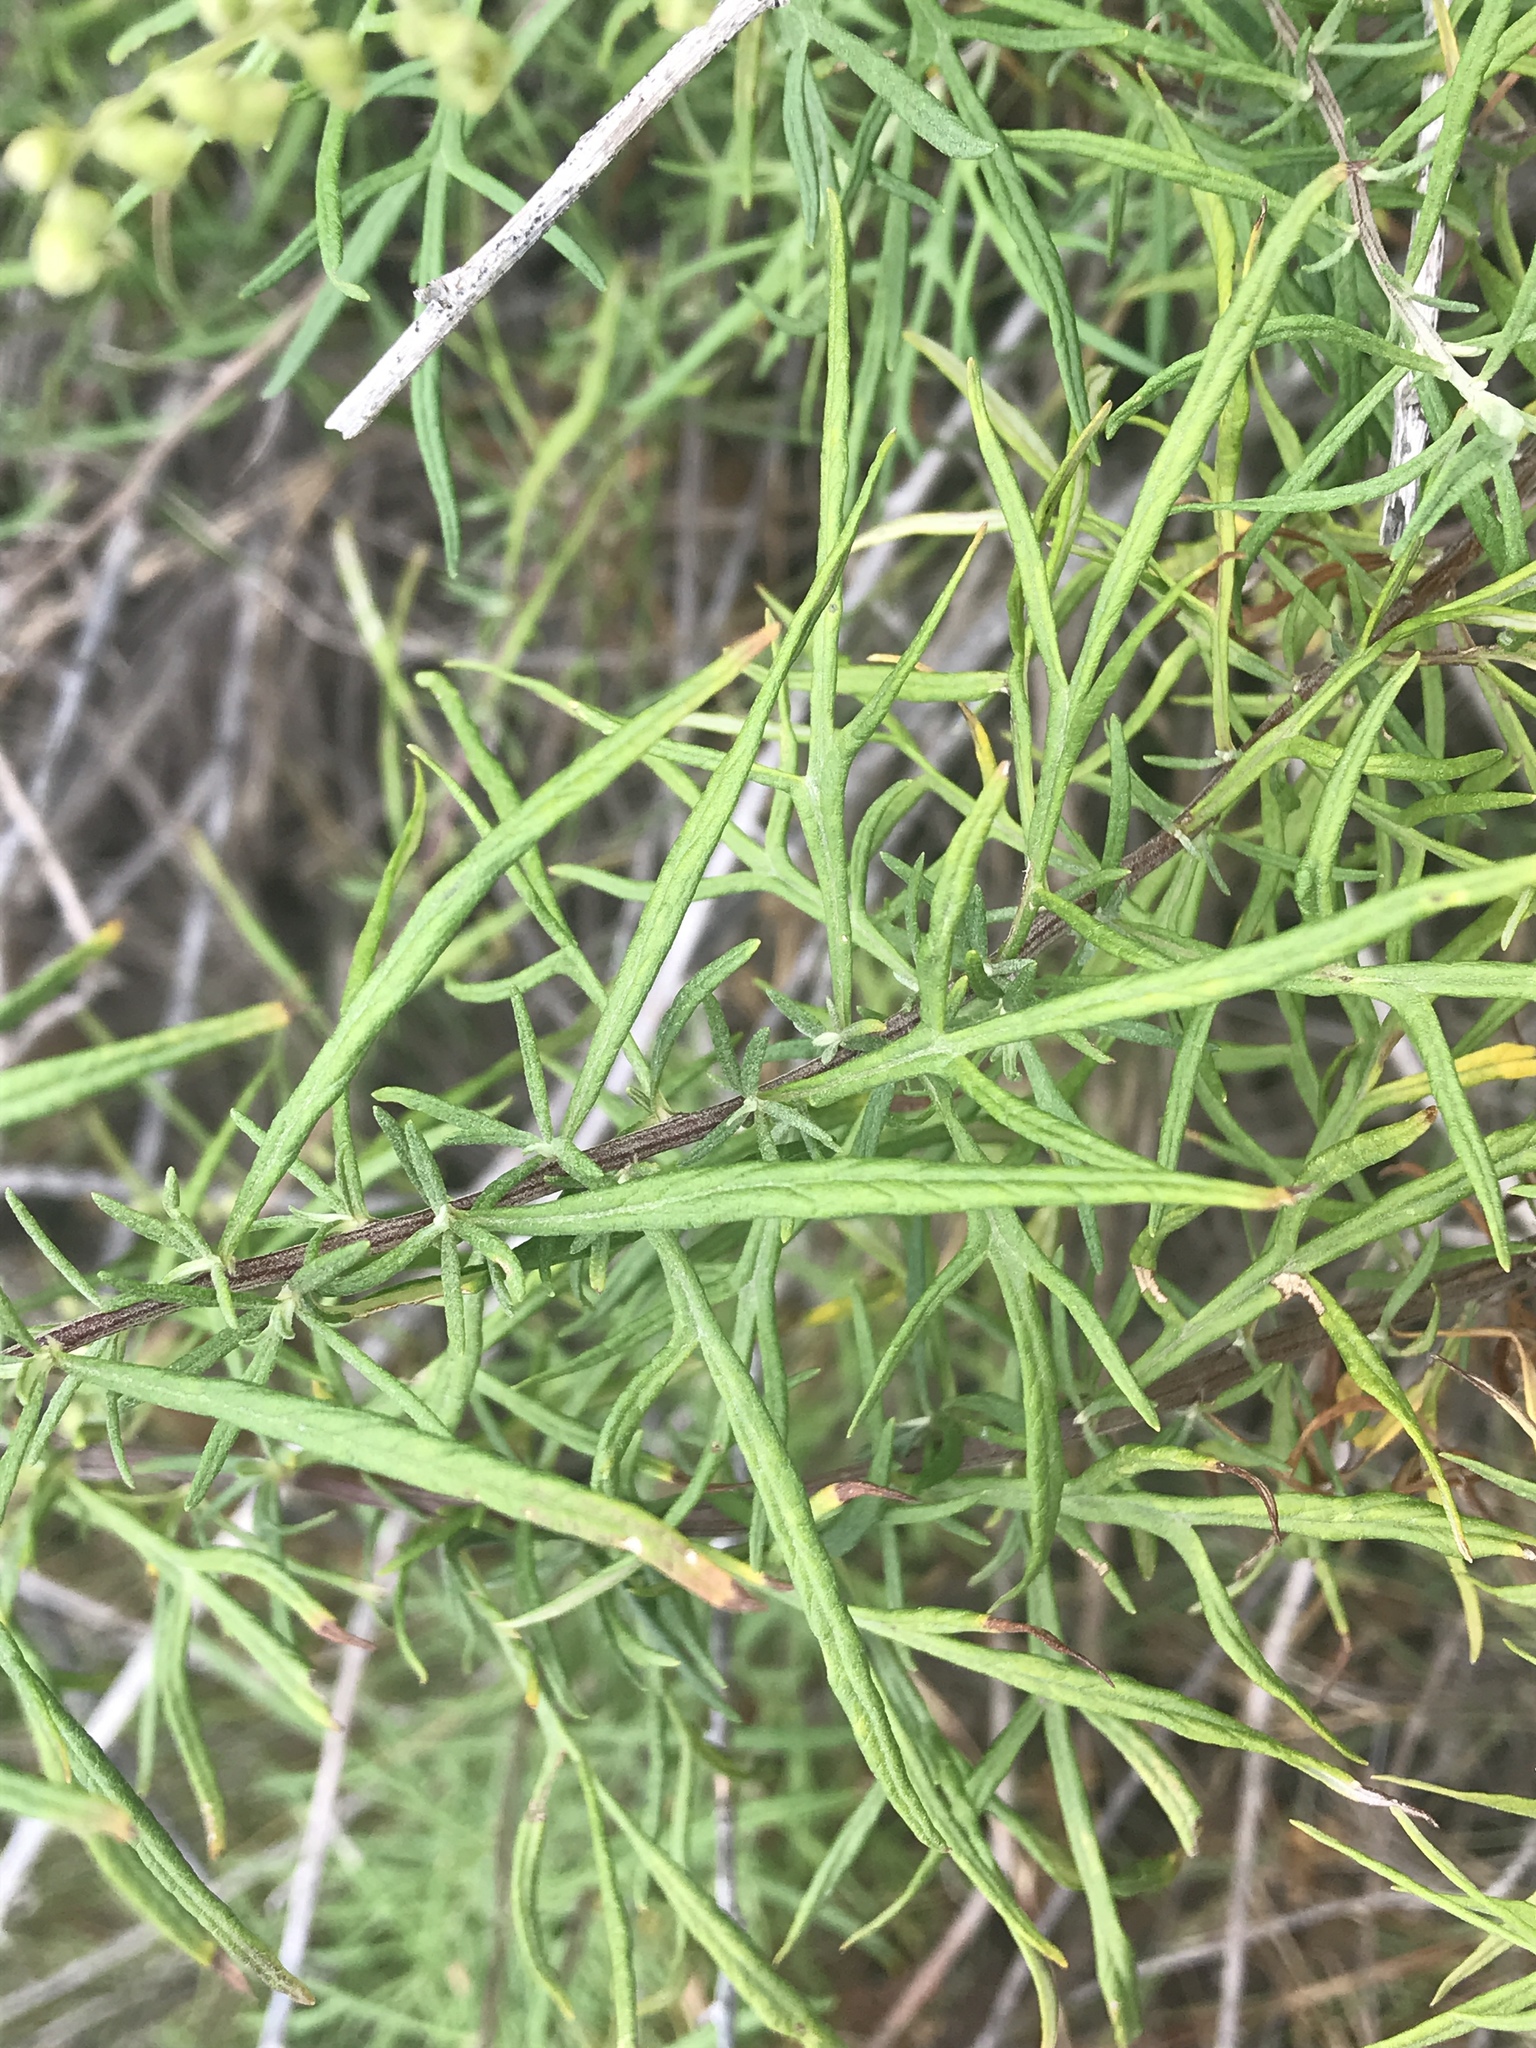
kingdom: Plantae
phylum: Tracheophyta
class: Magnoliopsida
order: Asterales
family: Asteraceae
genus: Artemisia
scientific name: Artemisia palmeri
